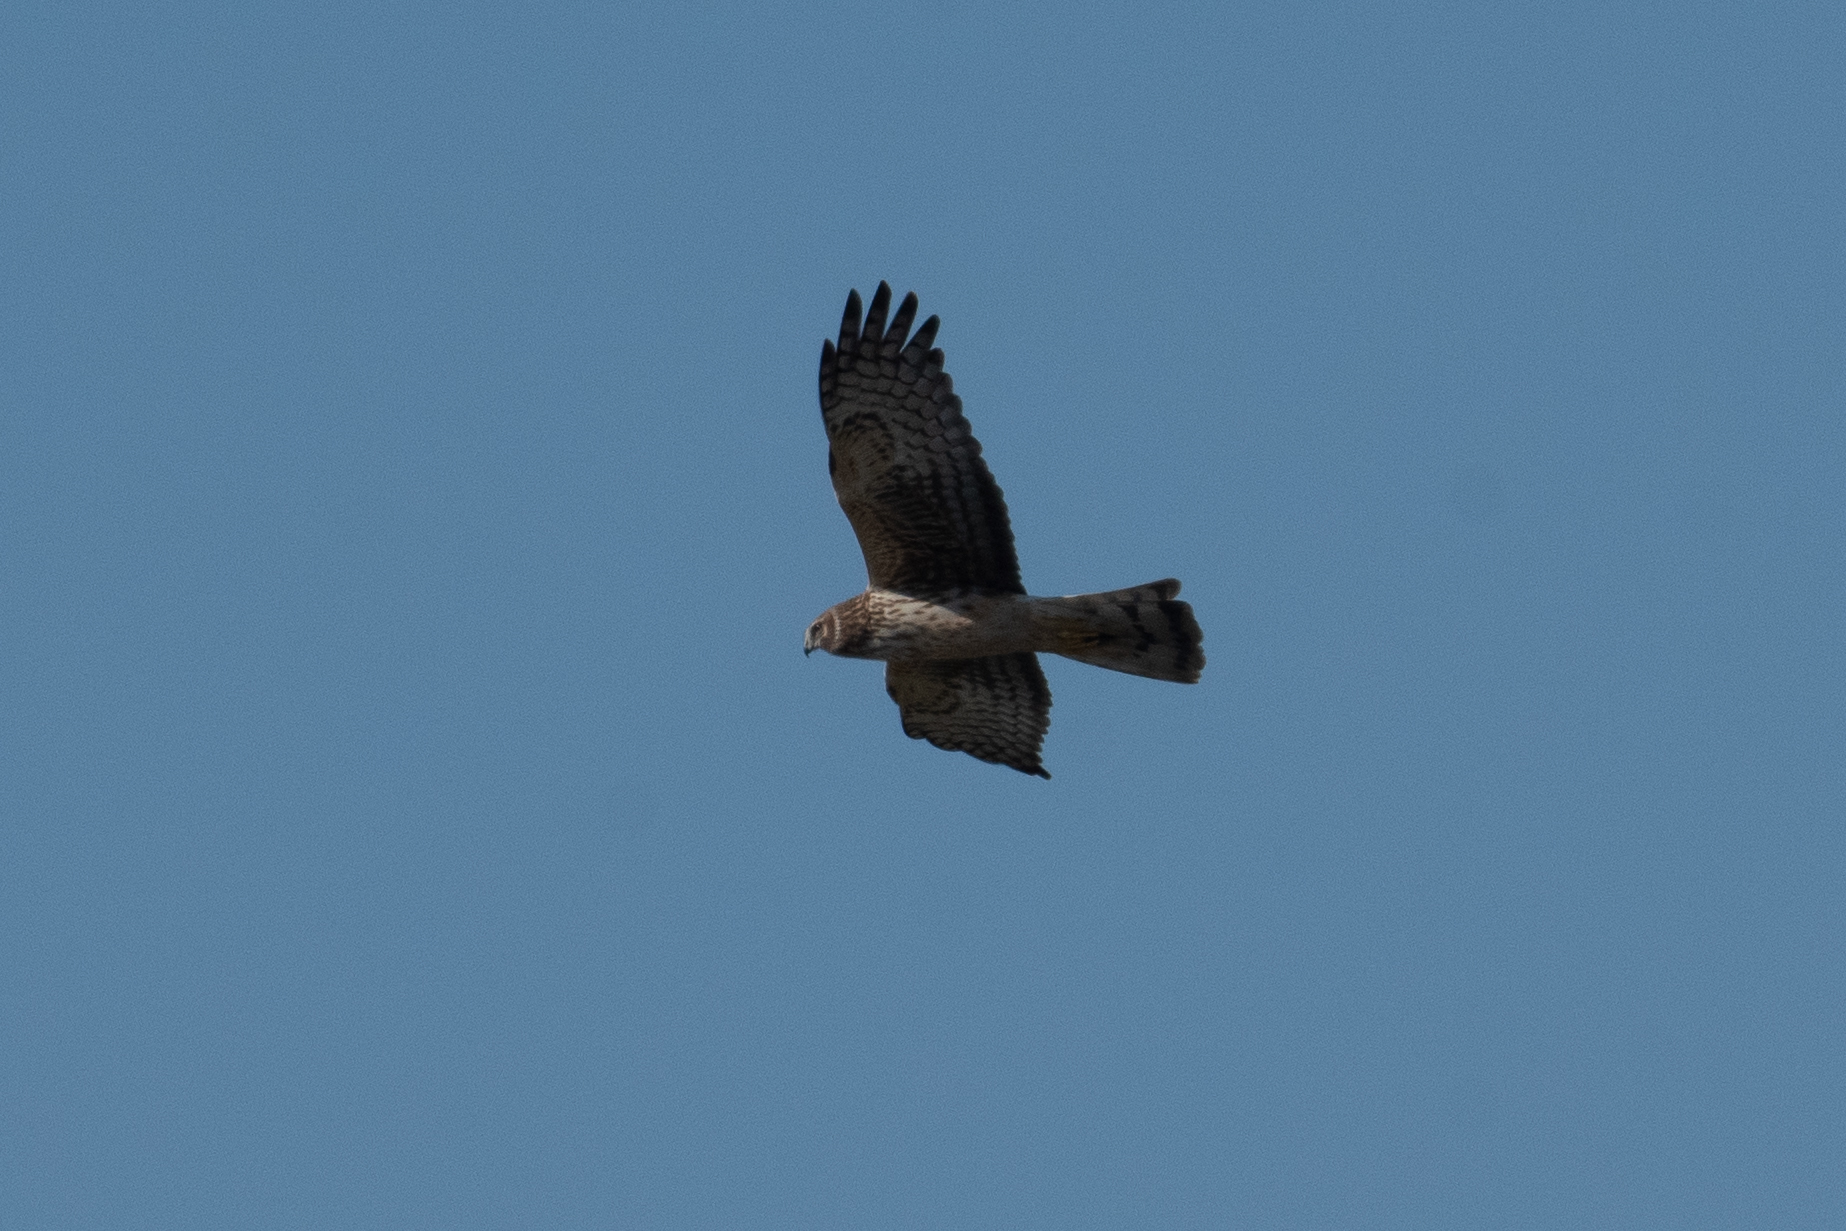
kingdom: Animalia
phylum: Chordata
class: Aves
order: Accipitriformes
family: Accipitridae
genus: Circus
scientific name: Circus cyaneus
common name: Hen harrier
